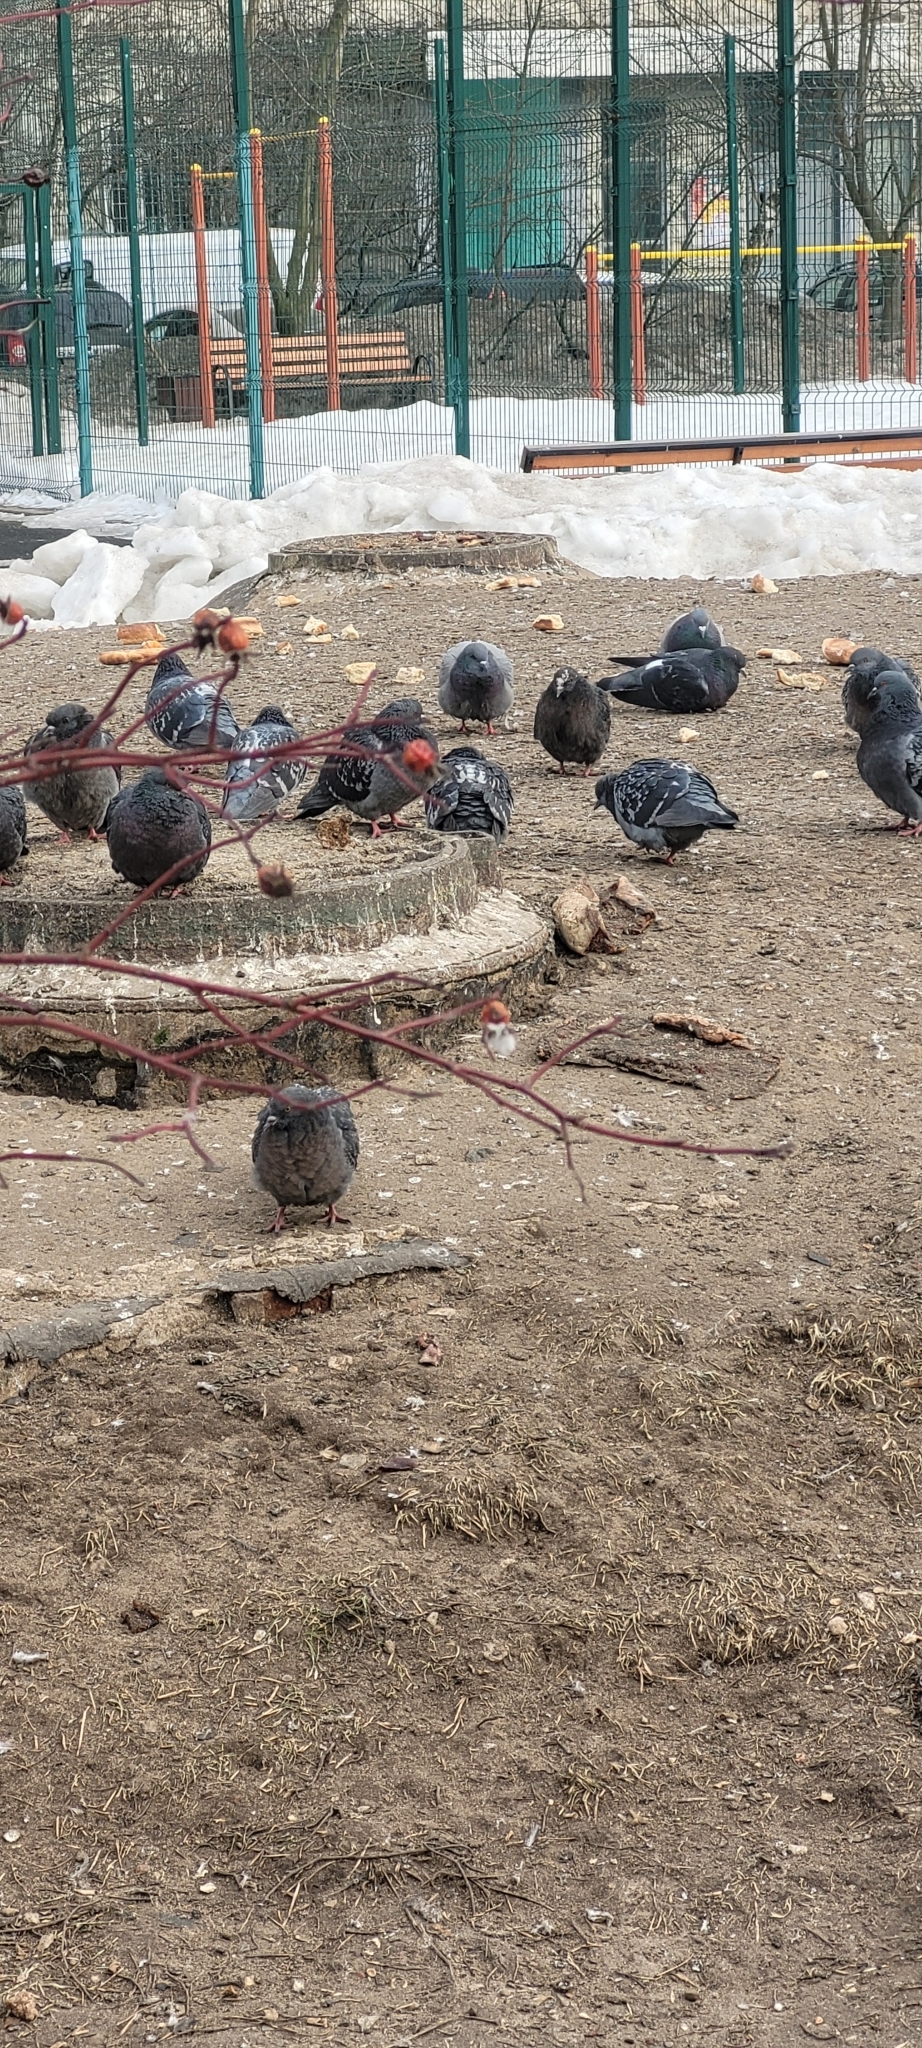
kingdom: Animalia
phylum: Chordata
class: Aves
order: Columbiformes
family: Columbidae
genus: Columba
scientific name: Columba livia
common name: Rock pigeon
